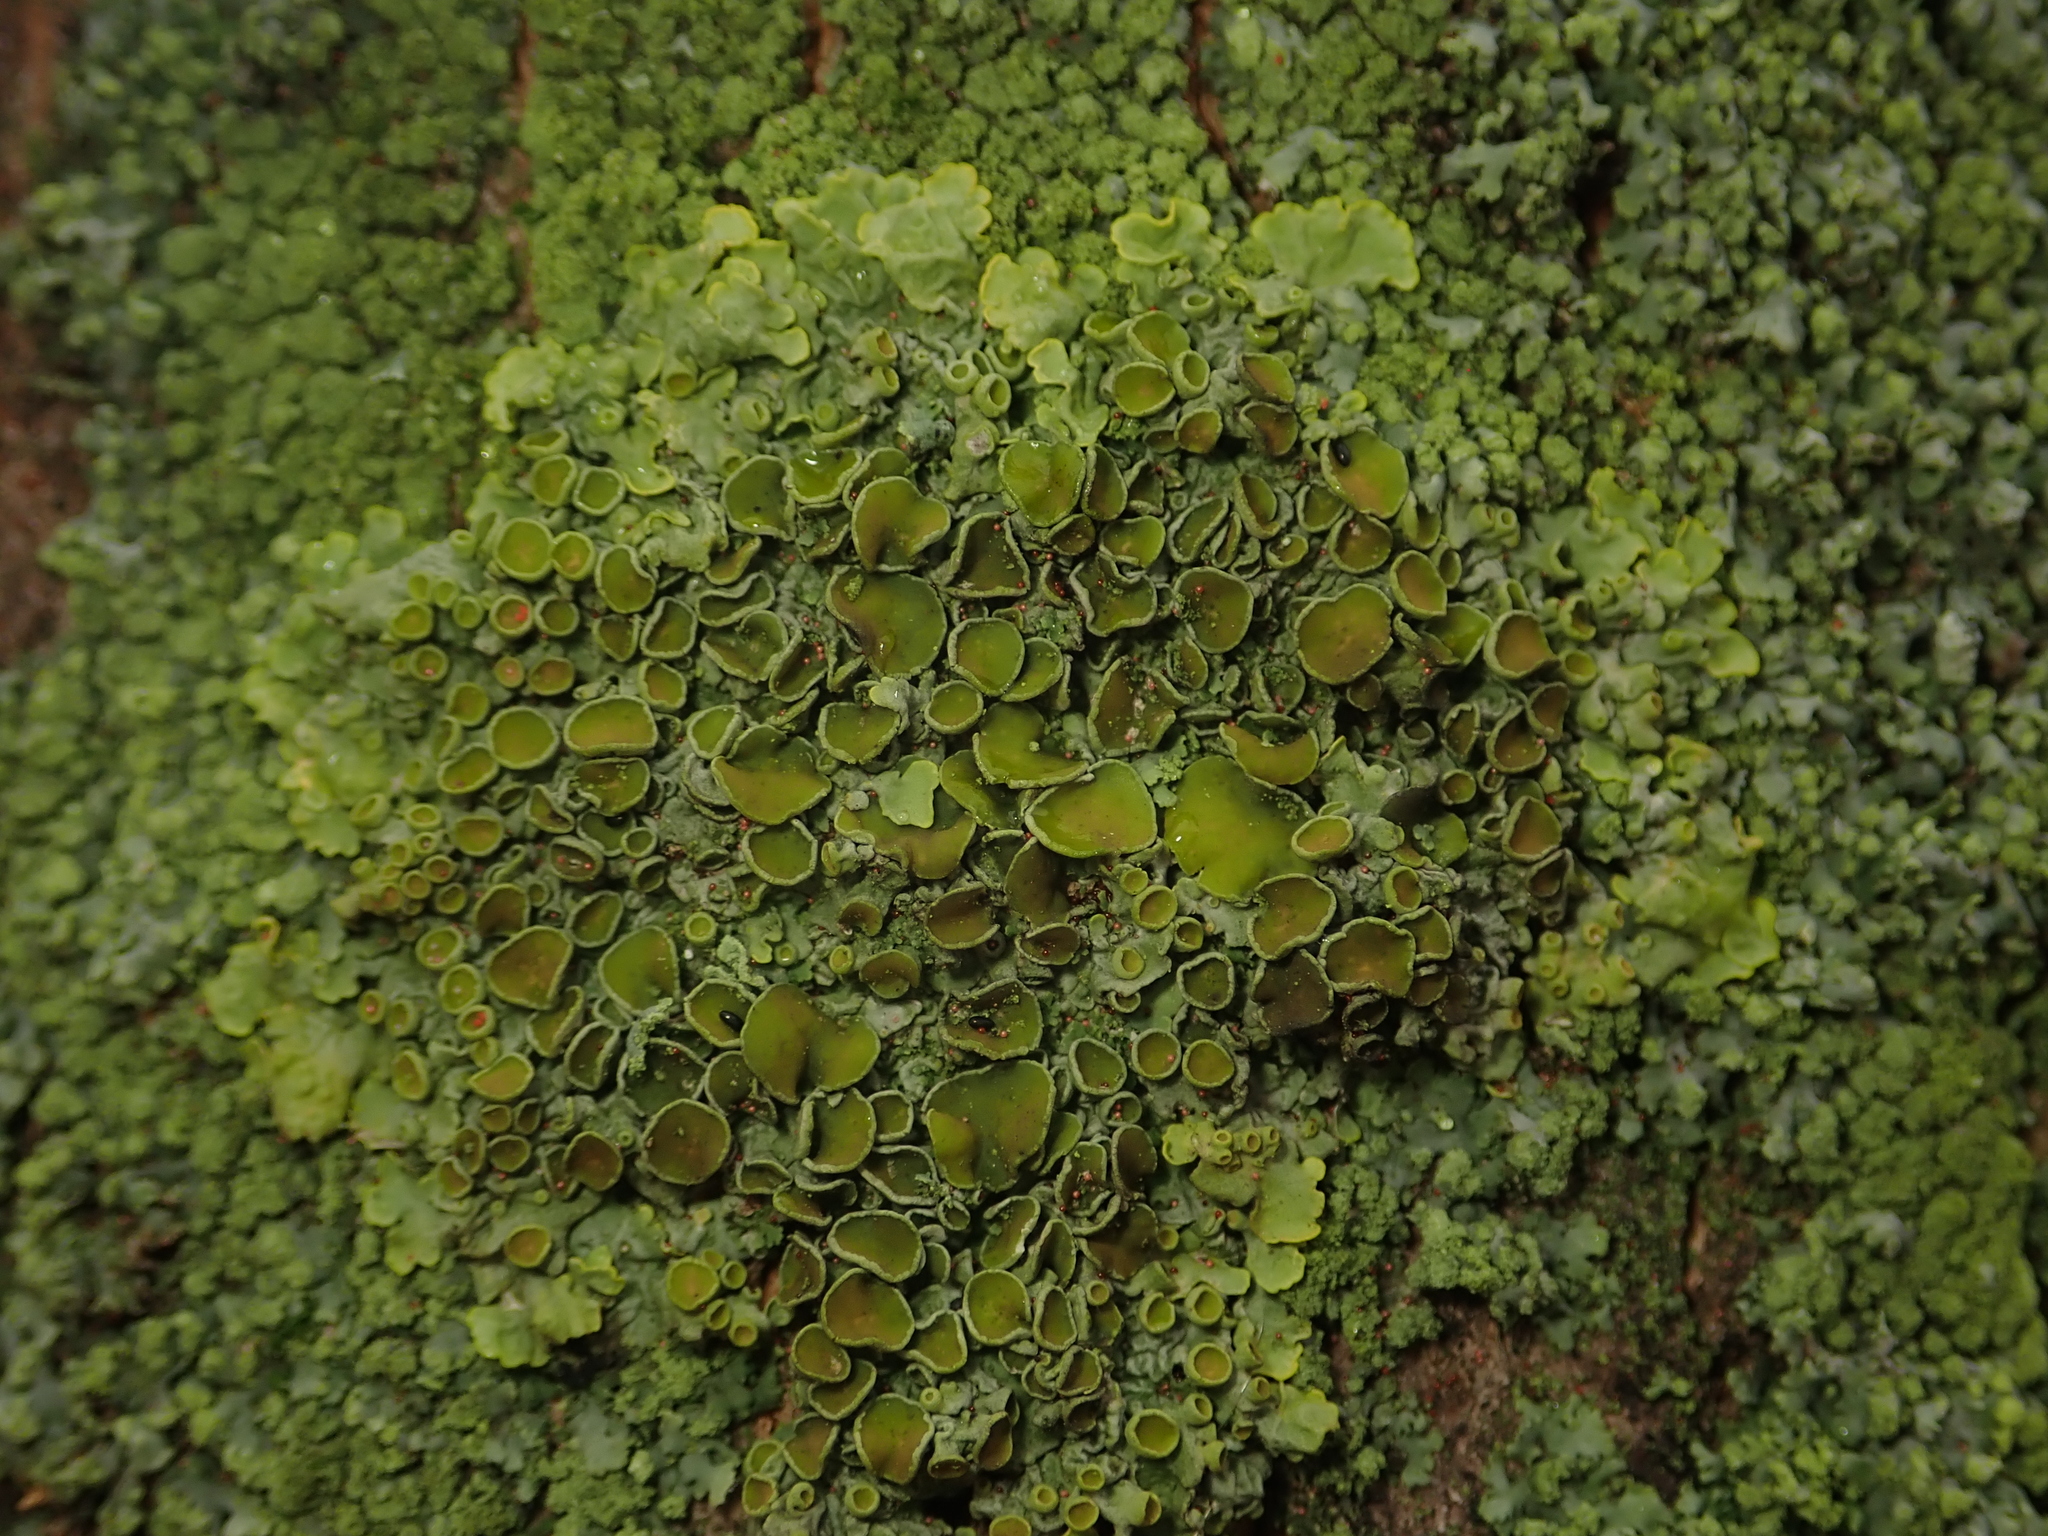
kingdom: Fungi
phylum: Ascomycota
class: Lecanoromycetes
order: Teloschistales
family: Teloschistaceae
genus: Xanthoria
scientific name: Xanthoria parietina
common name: Common orange lichen
